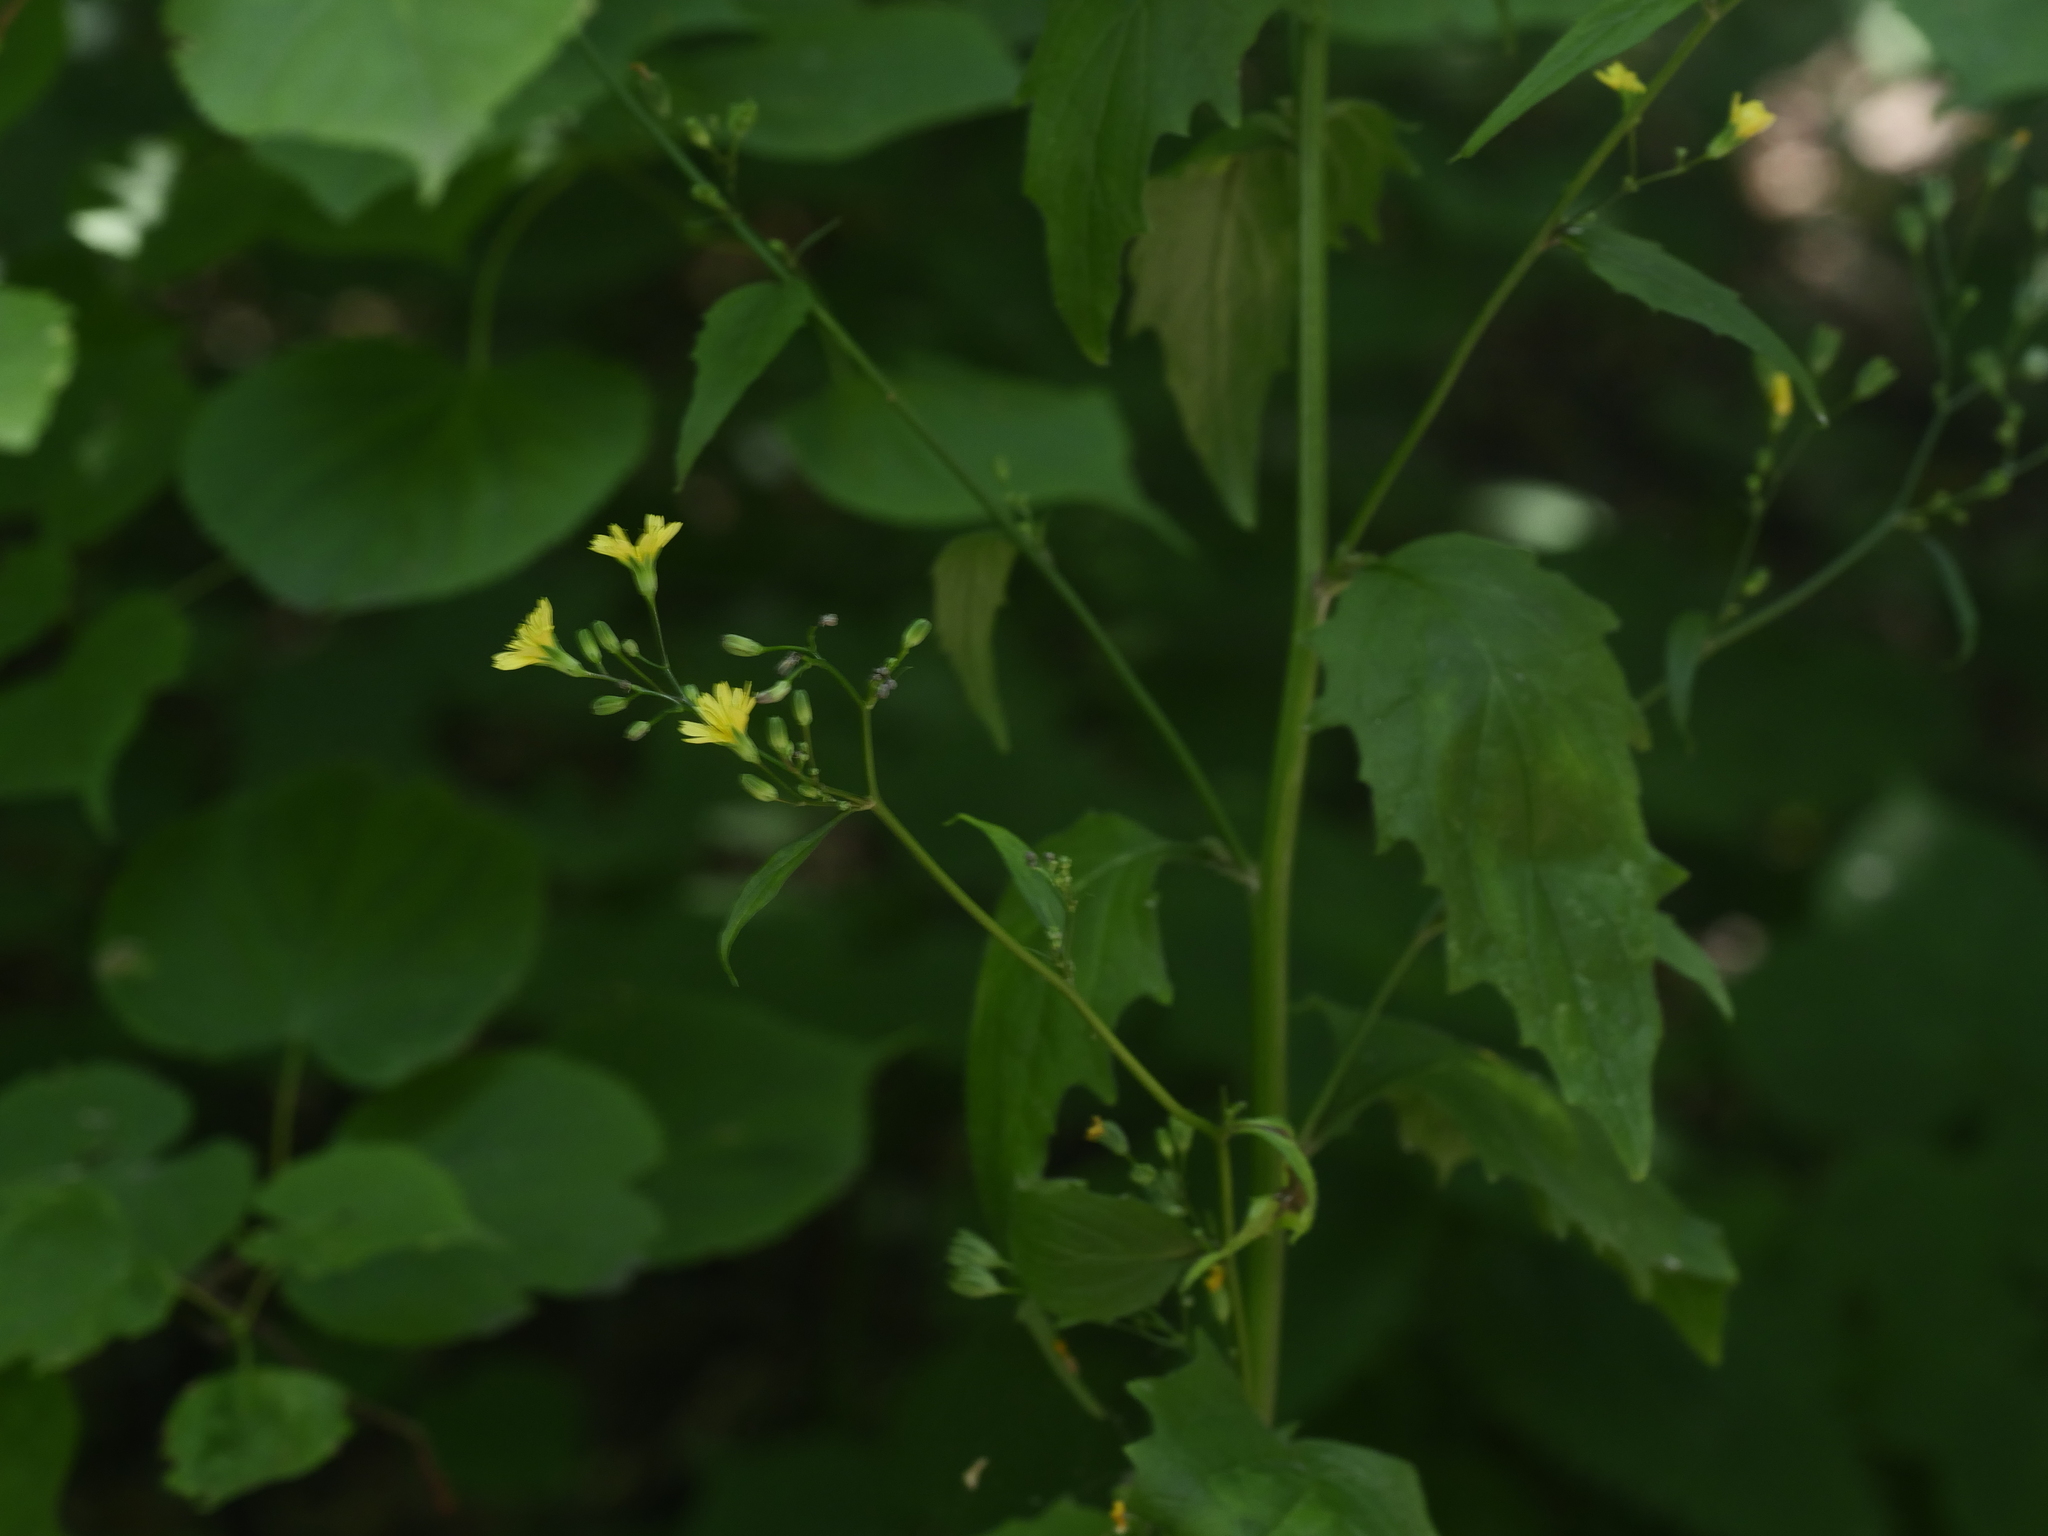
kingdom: Plantae
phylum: Tracheophyta
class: Magnoliopsida
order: Asterales
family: Asteraceae
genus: Lapsana
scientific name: Lapsana communis
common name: Nipplewort
